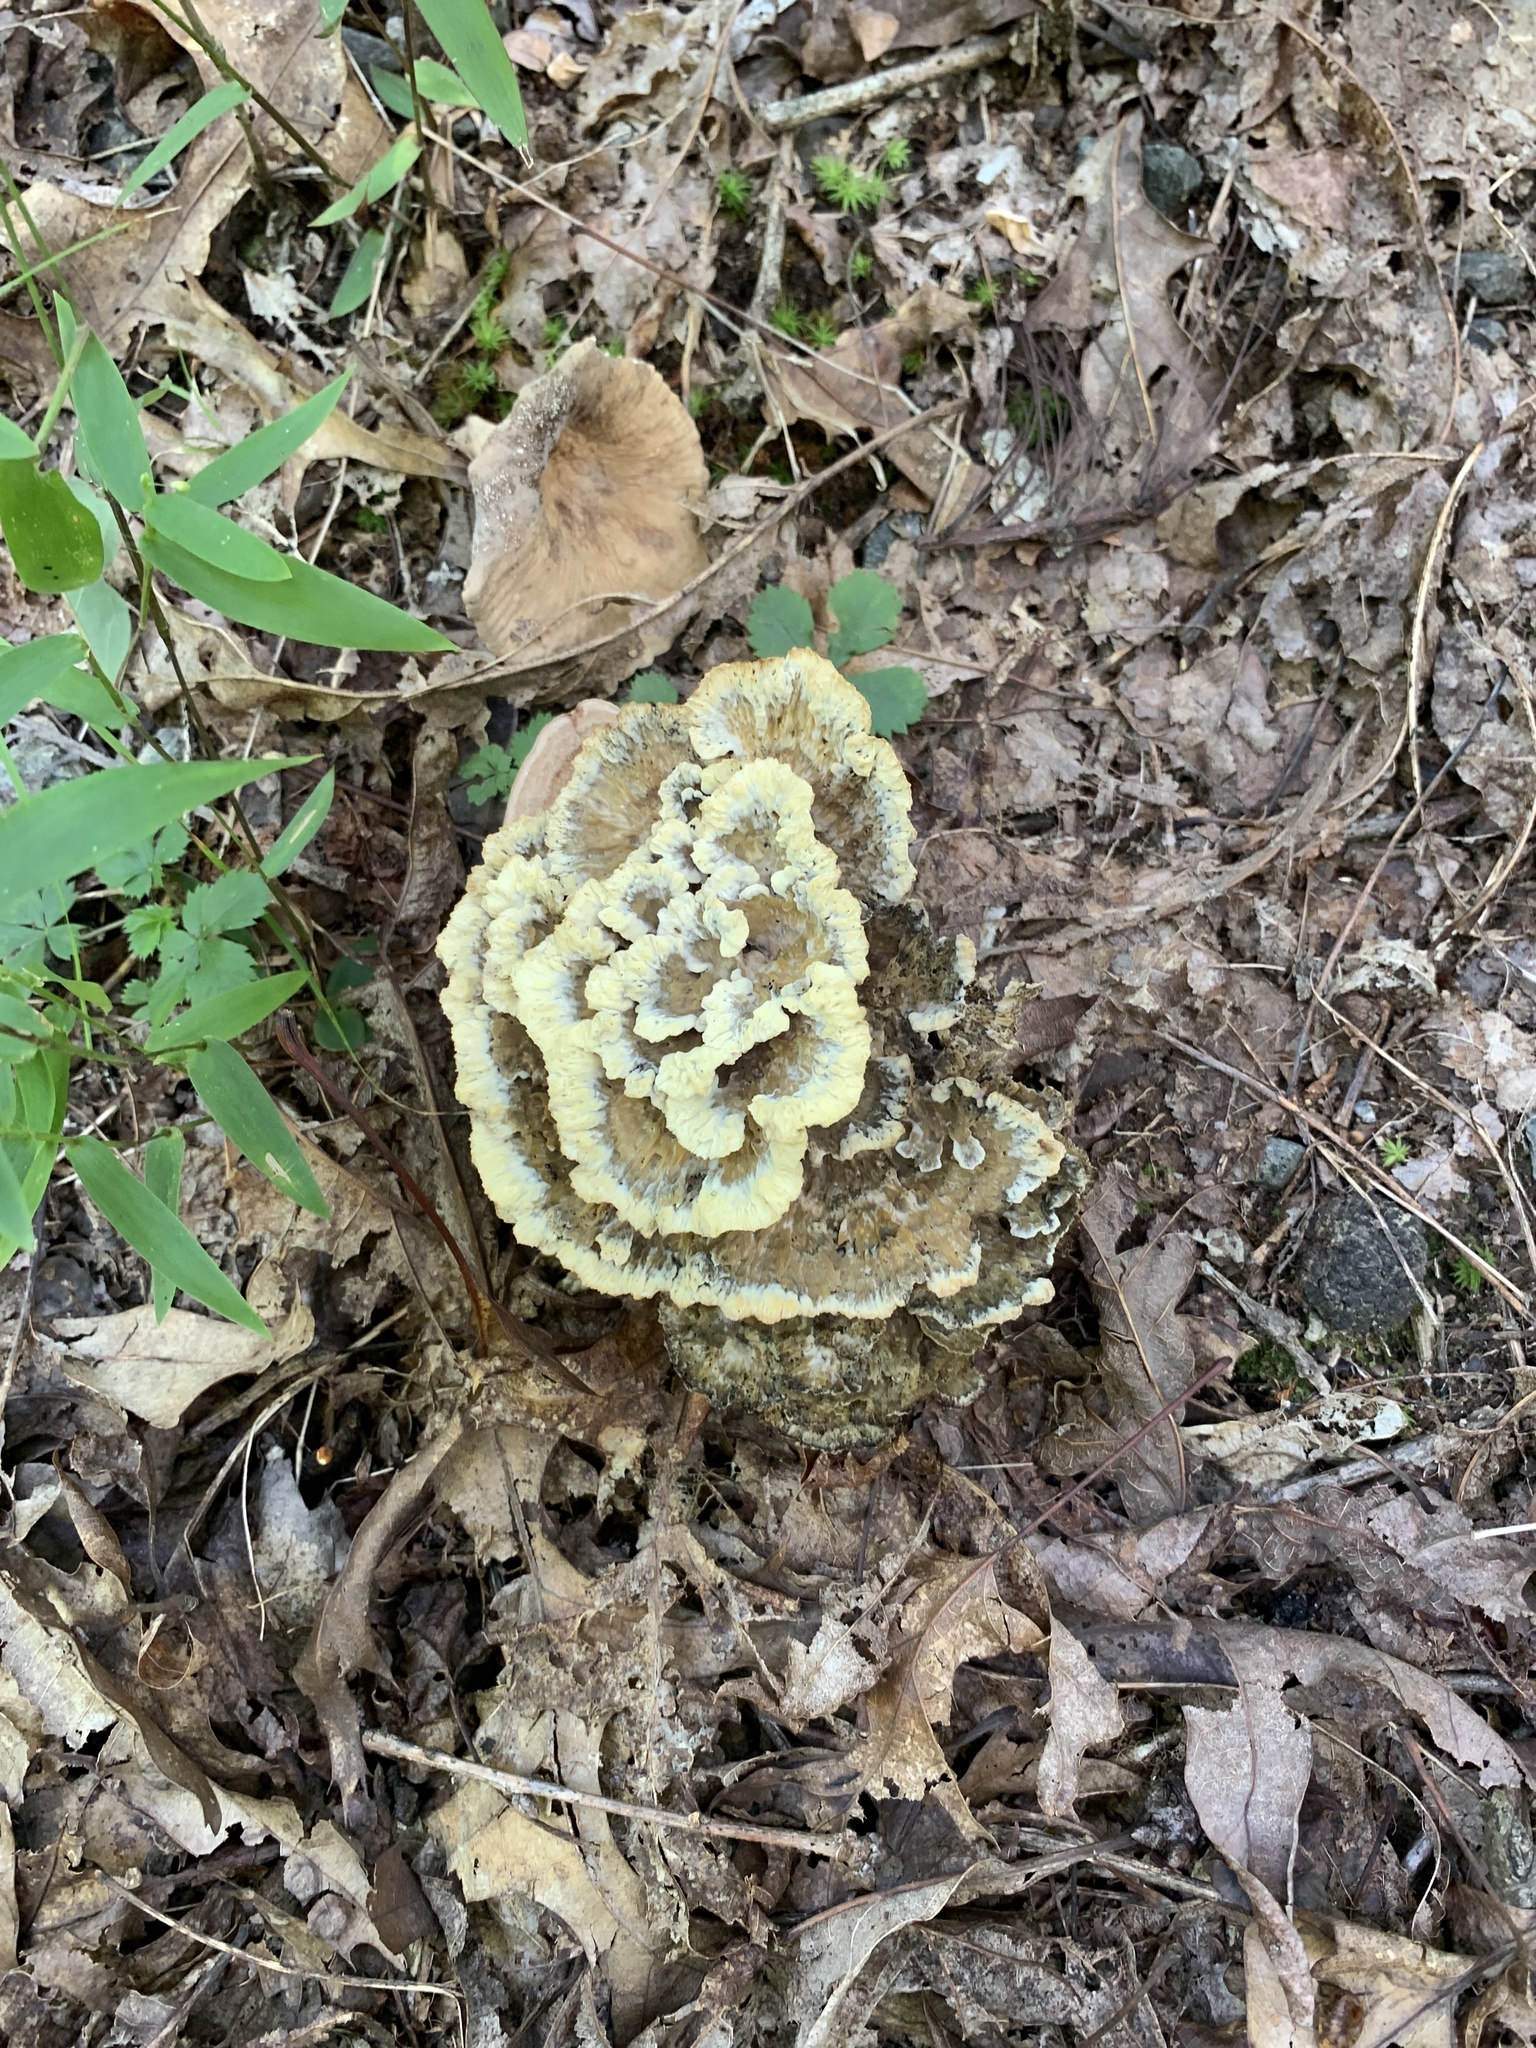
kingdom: Fungi
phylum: Basidiomycota
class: Agaricomycetes
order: Thelephorales
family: Thelephoraceae
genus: Thelephora
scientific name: Thelephora vialis
